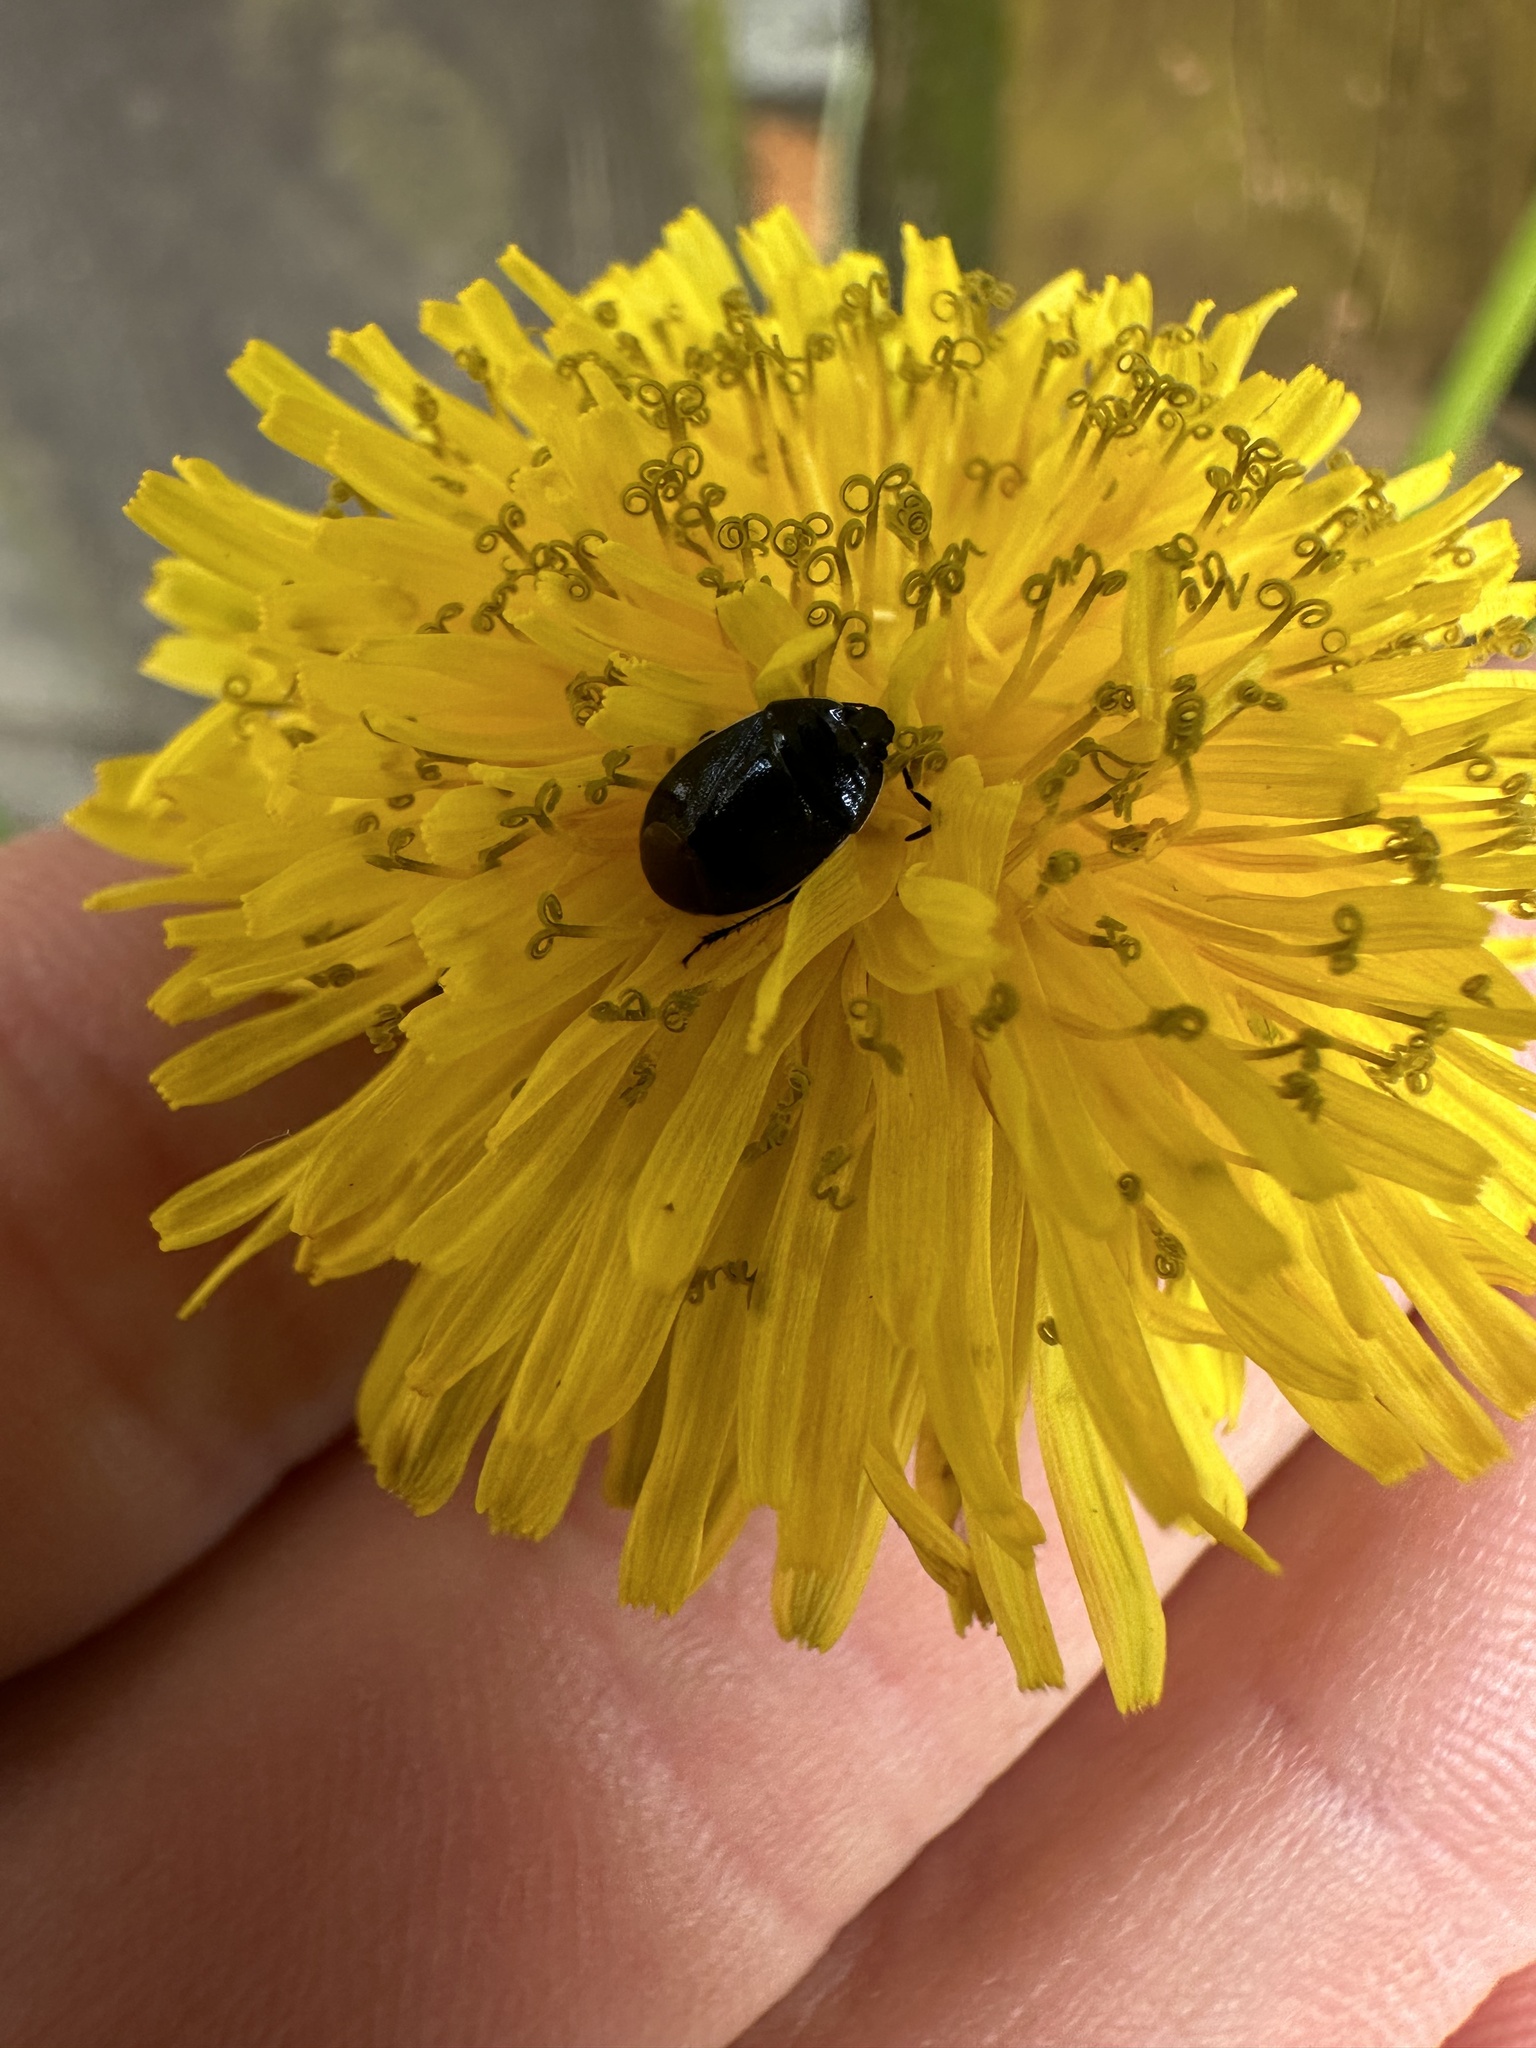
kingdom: Animalia
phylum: Arthropoda
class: Insecta
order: Hemiptera
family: Cydnidae
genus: Sehirus
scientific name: Sehirus cinctus
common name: White-margined burrower bug
